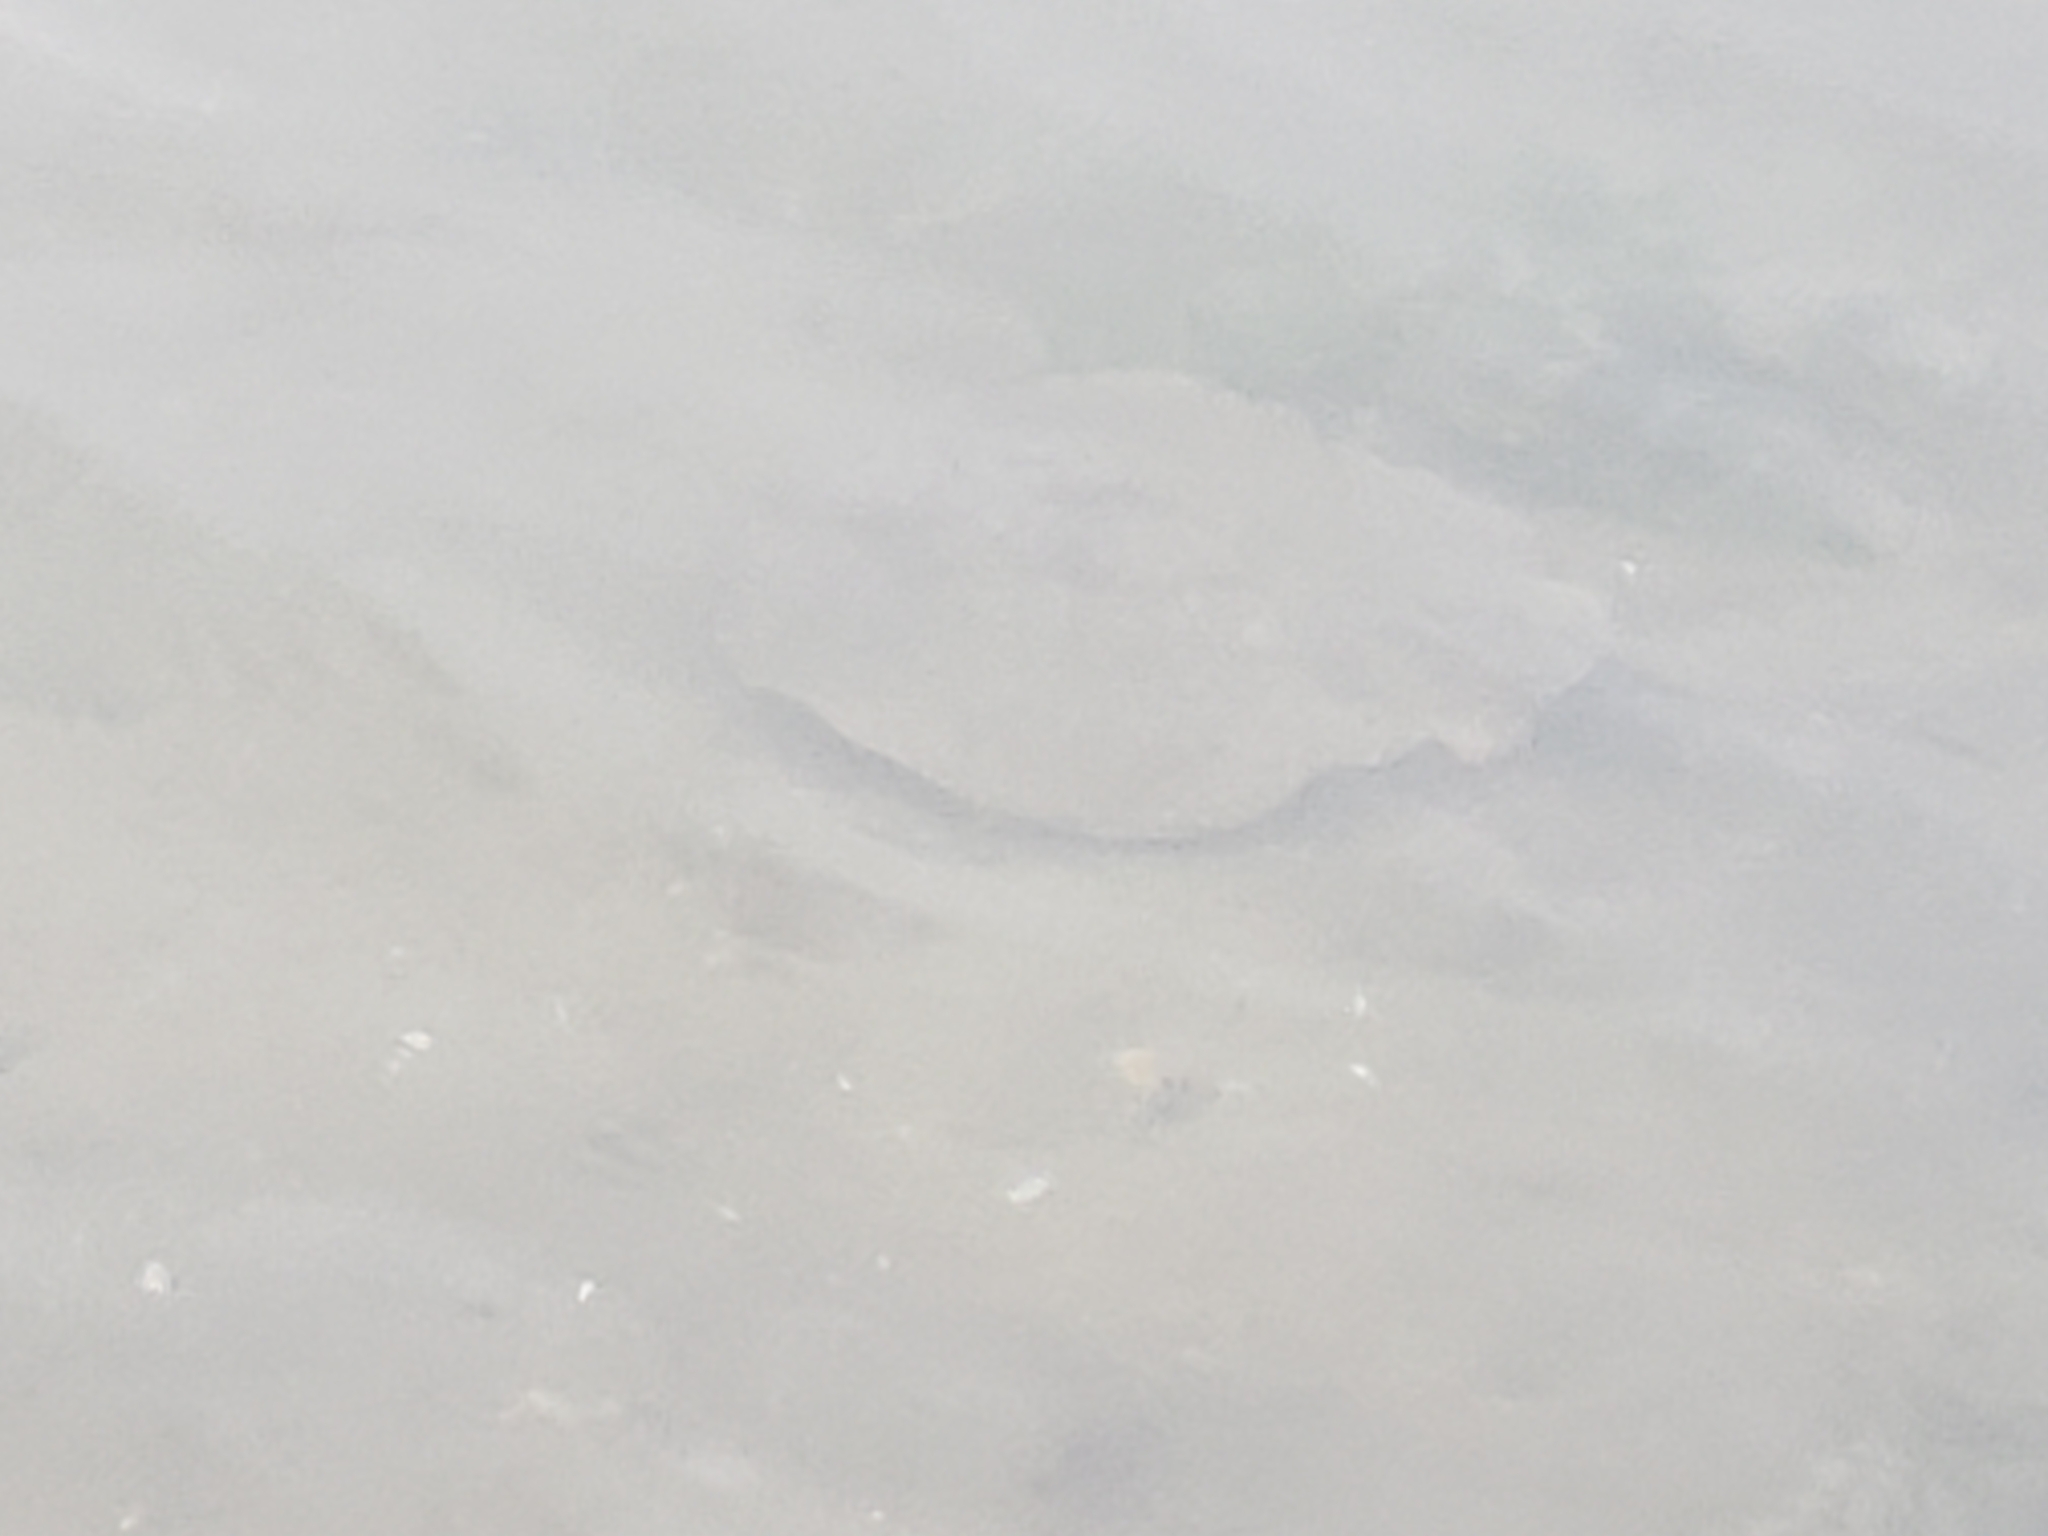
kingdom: Animalia
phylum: Chordata
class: Elasmobranchii
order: Myliobatiformes
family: Urolophidae
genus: Urolophus
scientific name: Urolophus halleri
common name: Round stingray
